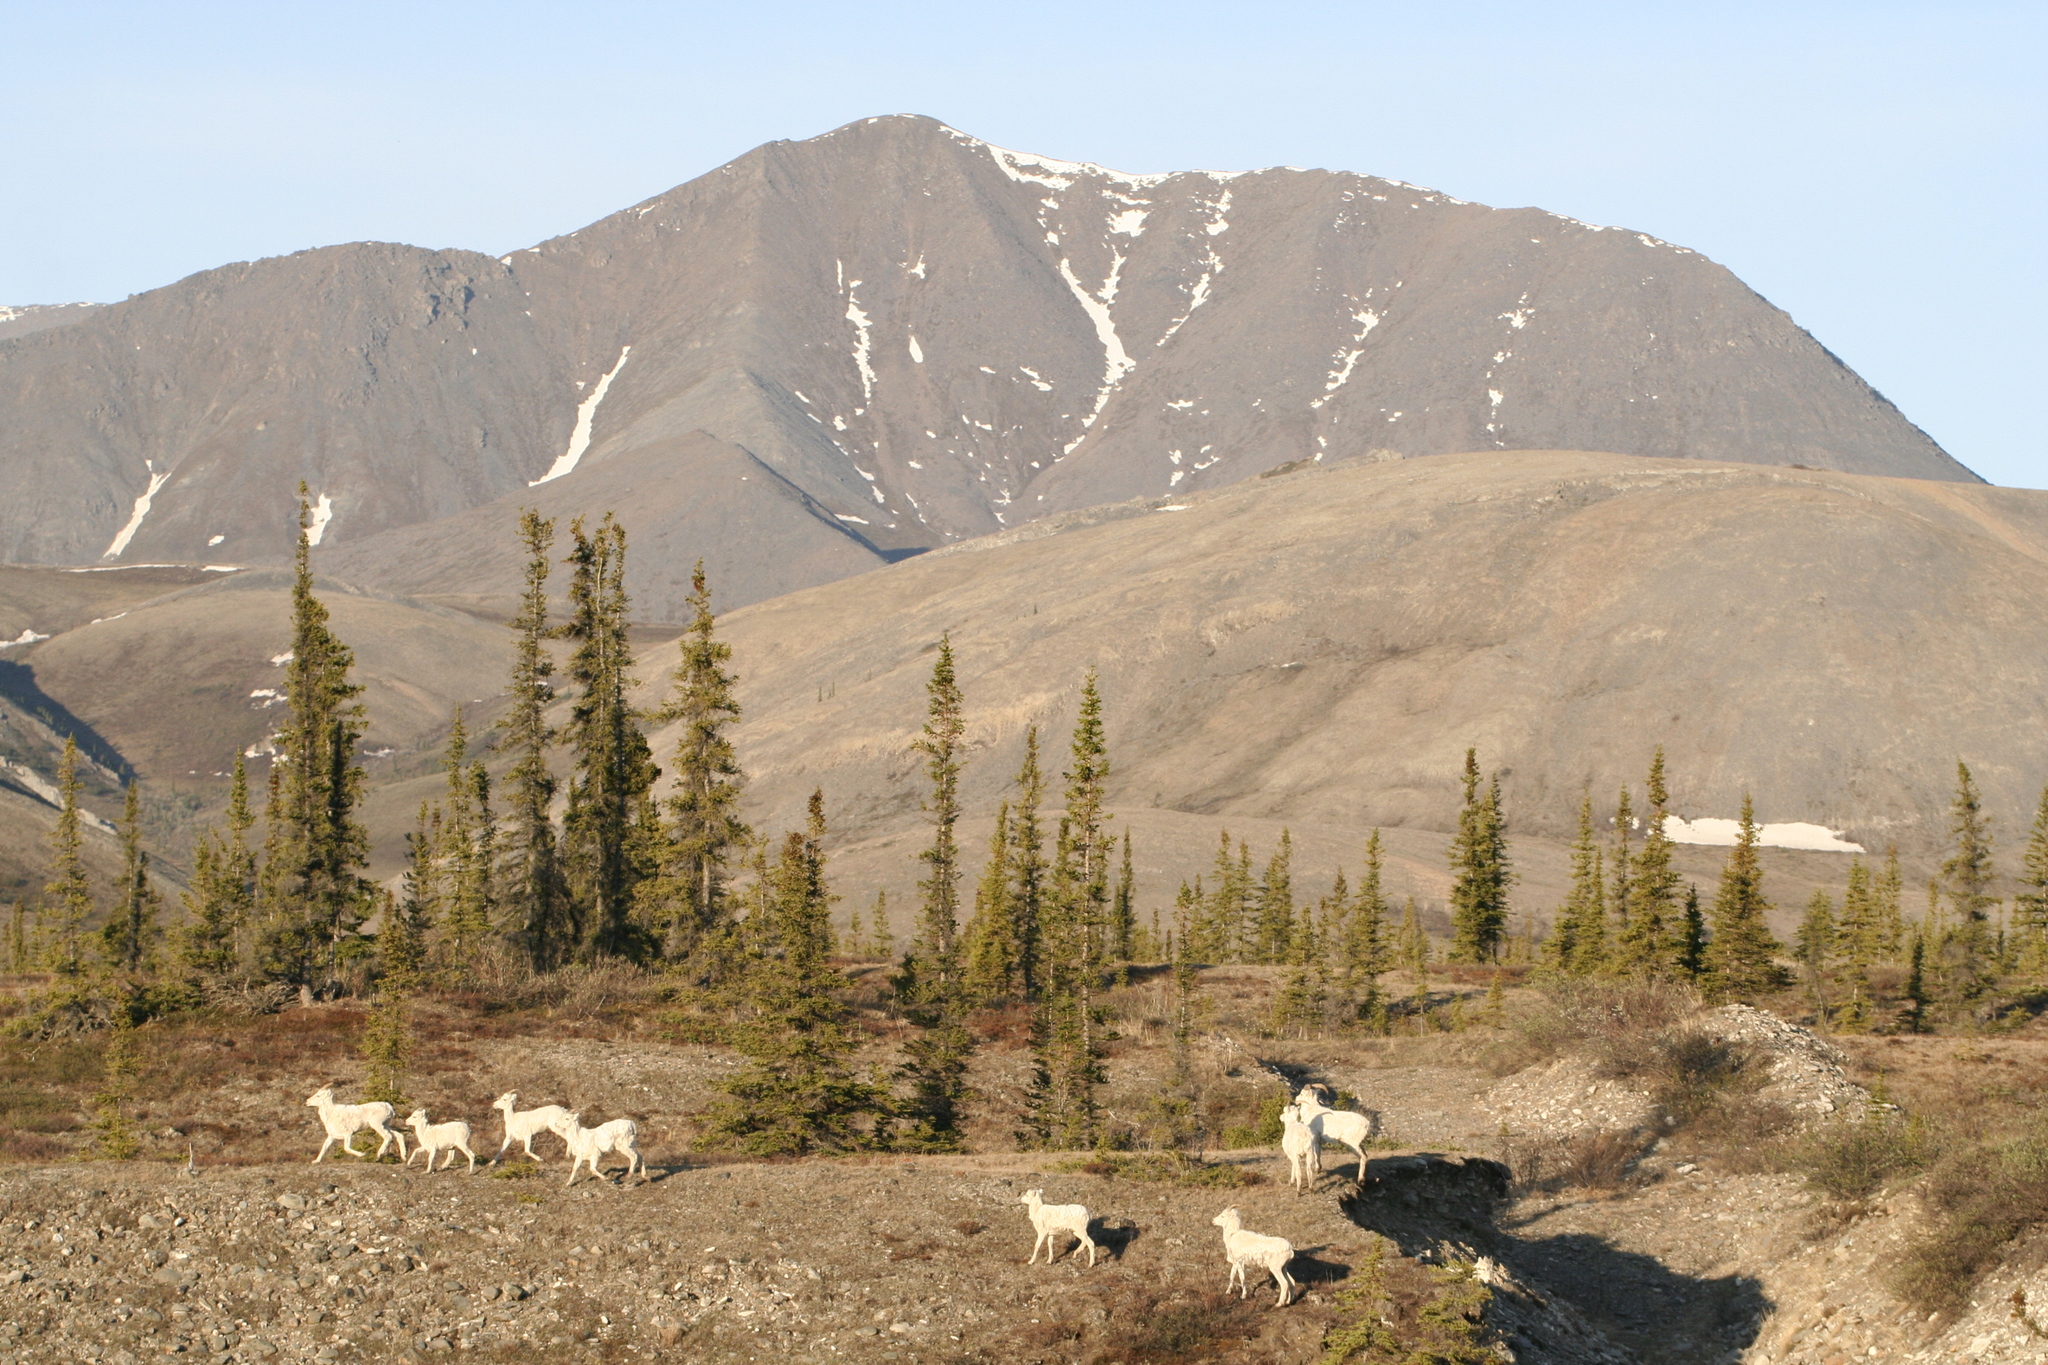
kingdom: Animalia
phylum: Chordata
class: Mammalia
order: Artiodactyla
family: Bovidae
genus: Ovis
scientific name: Ovis dalli
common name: Dall's sheep
